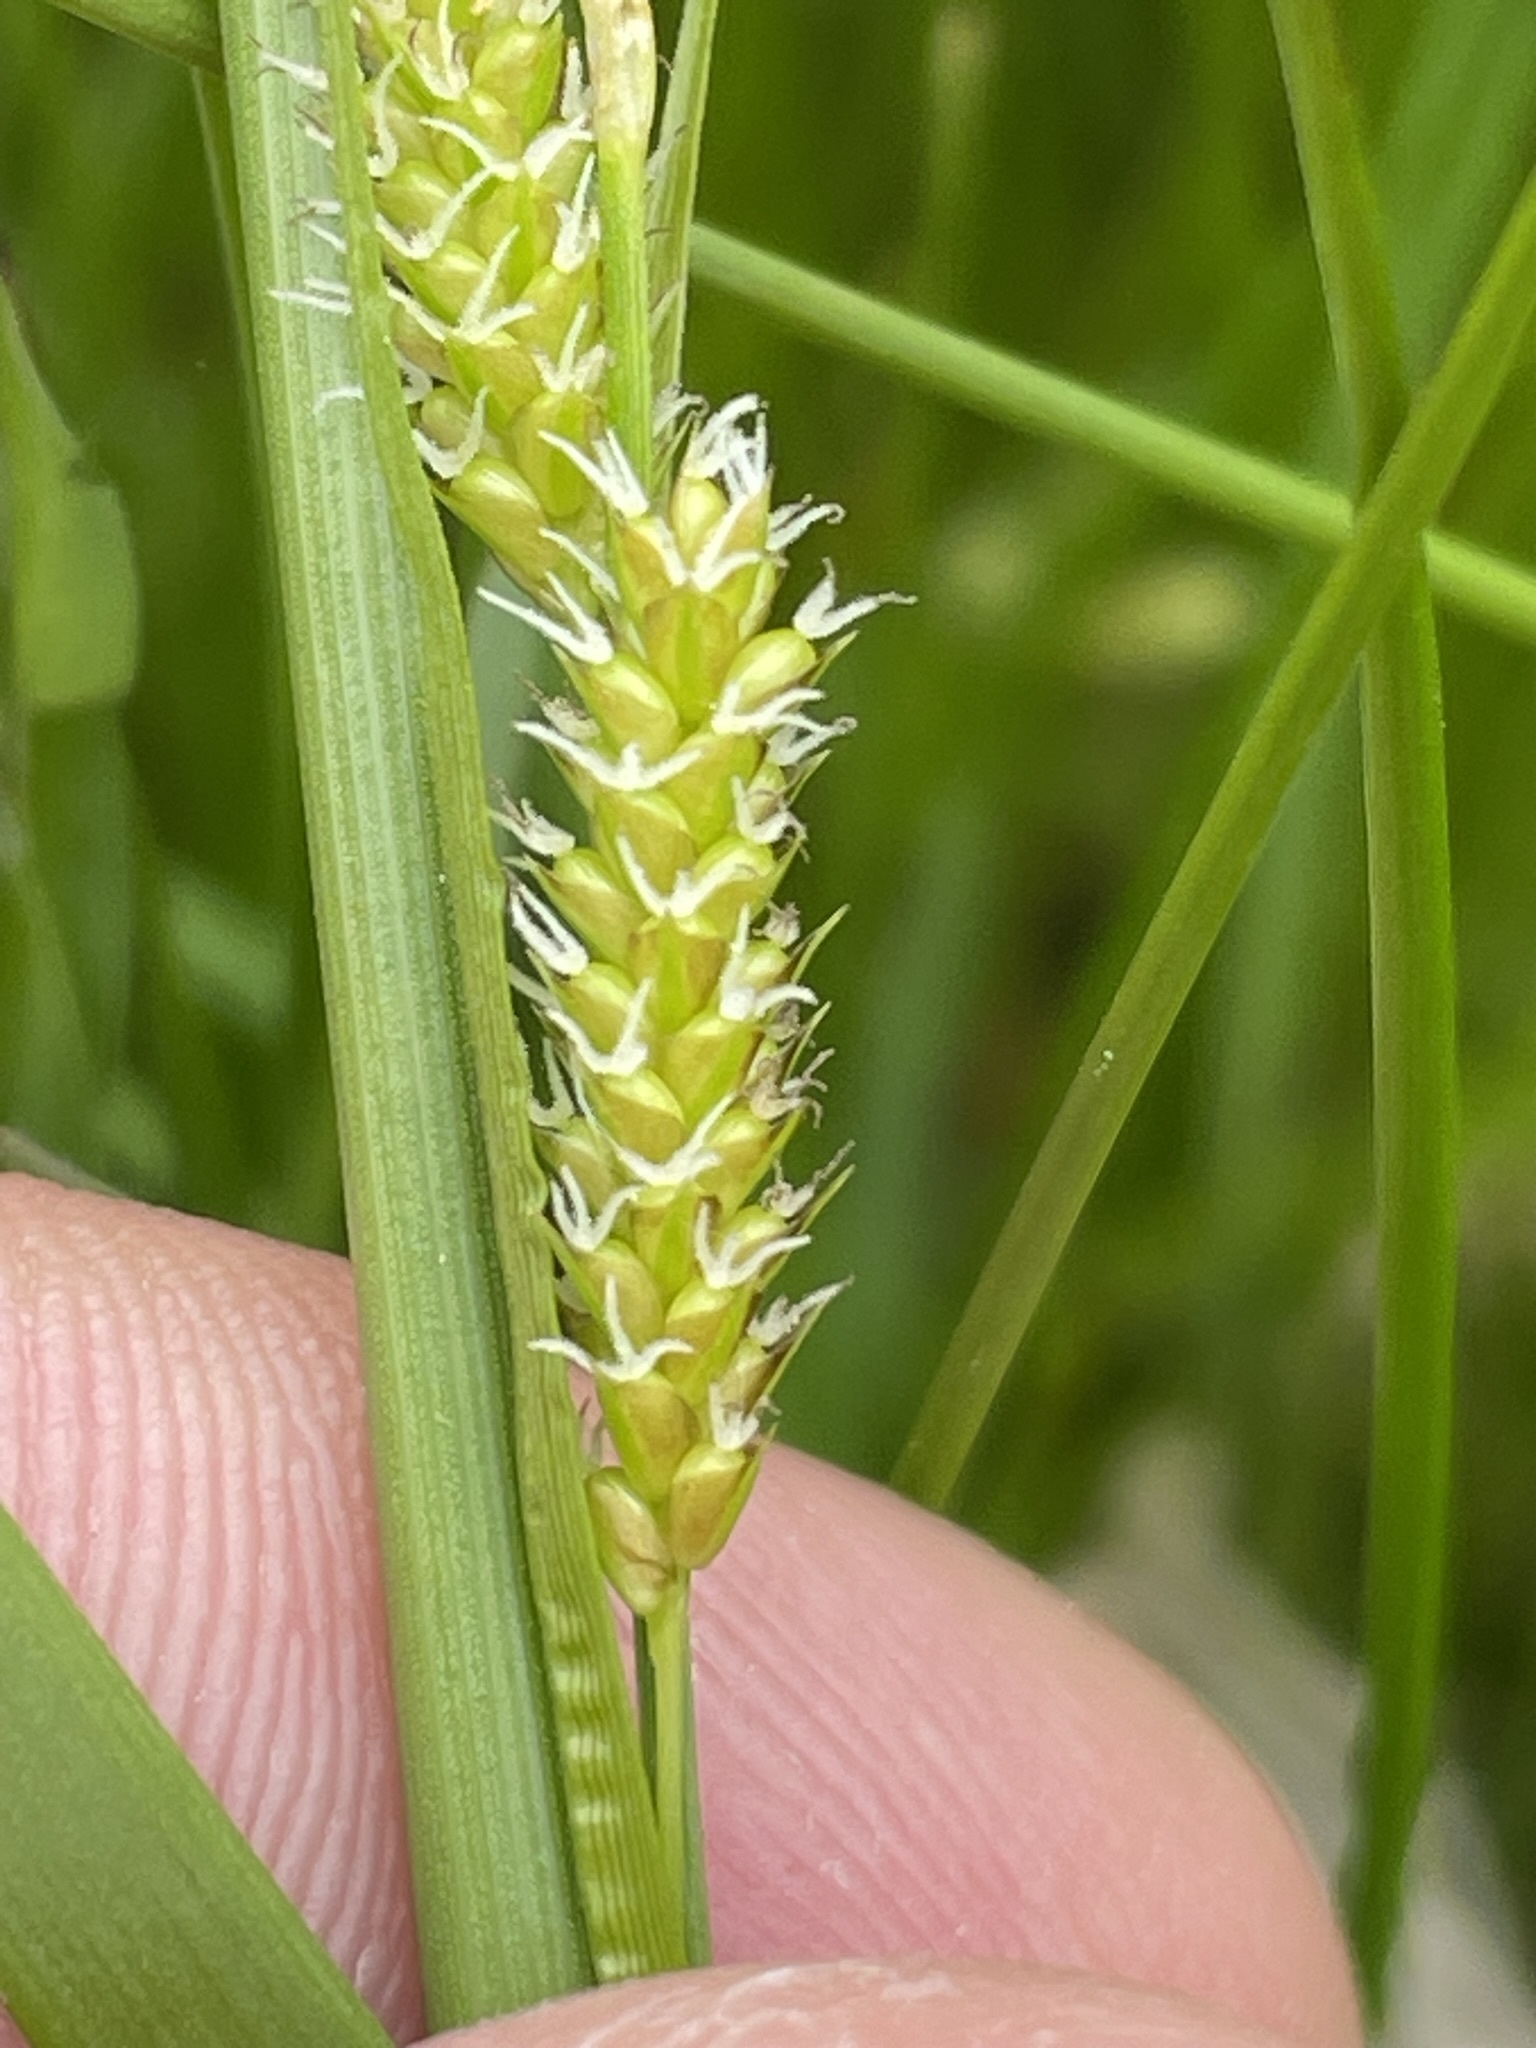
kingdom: Plantae
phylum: Tracheophyta
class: Liliopsida
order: Poales
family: Cyperaceae
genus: Carex
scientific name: Carex pallescens
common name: Pale sedge
